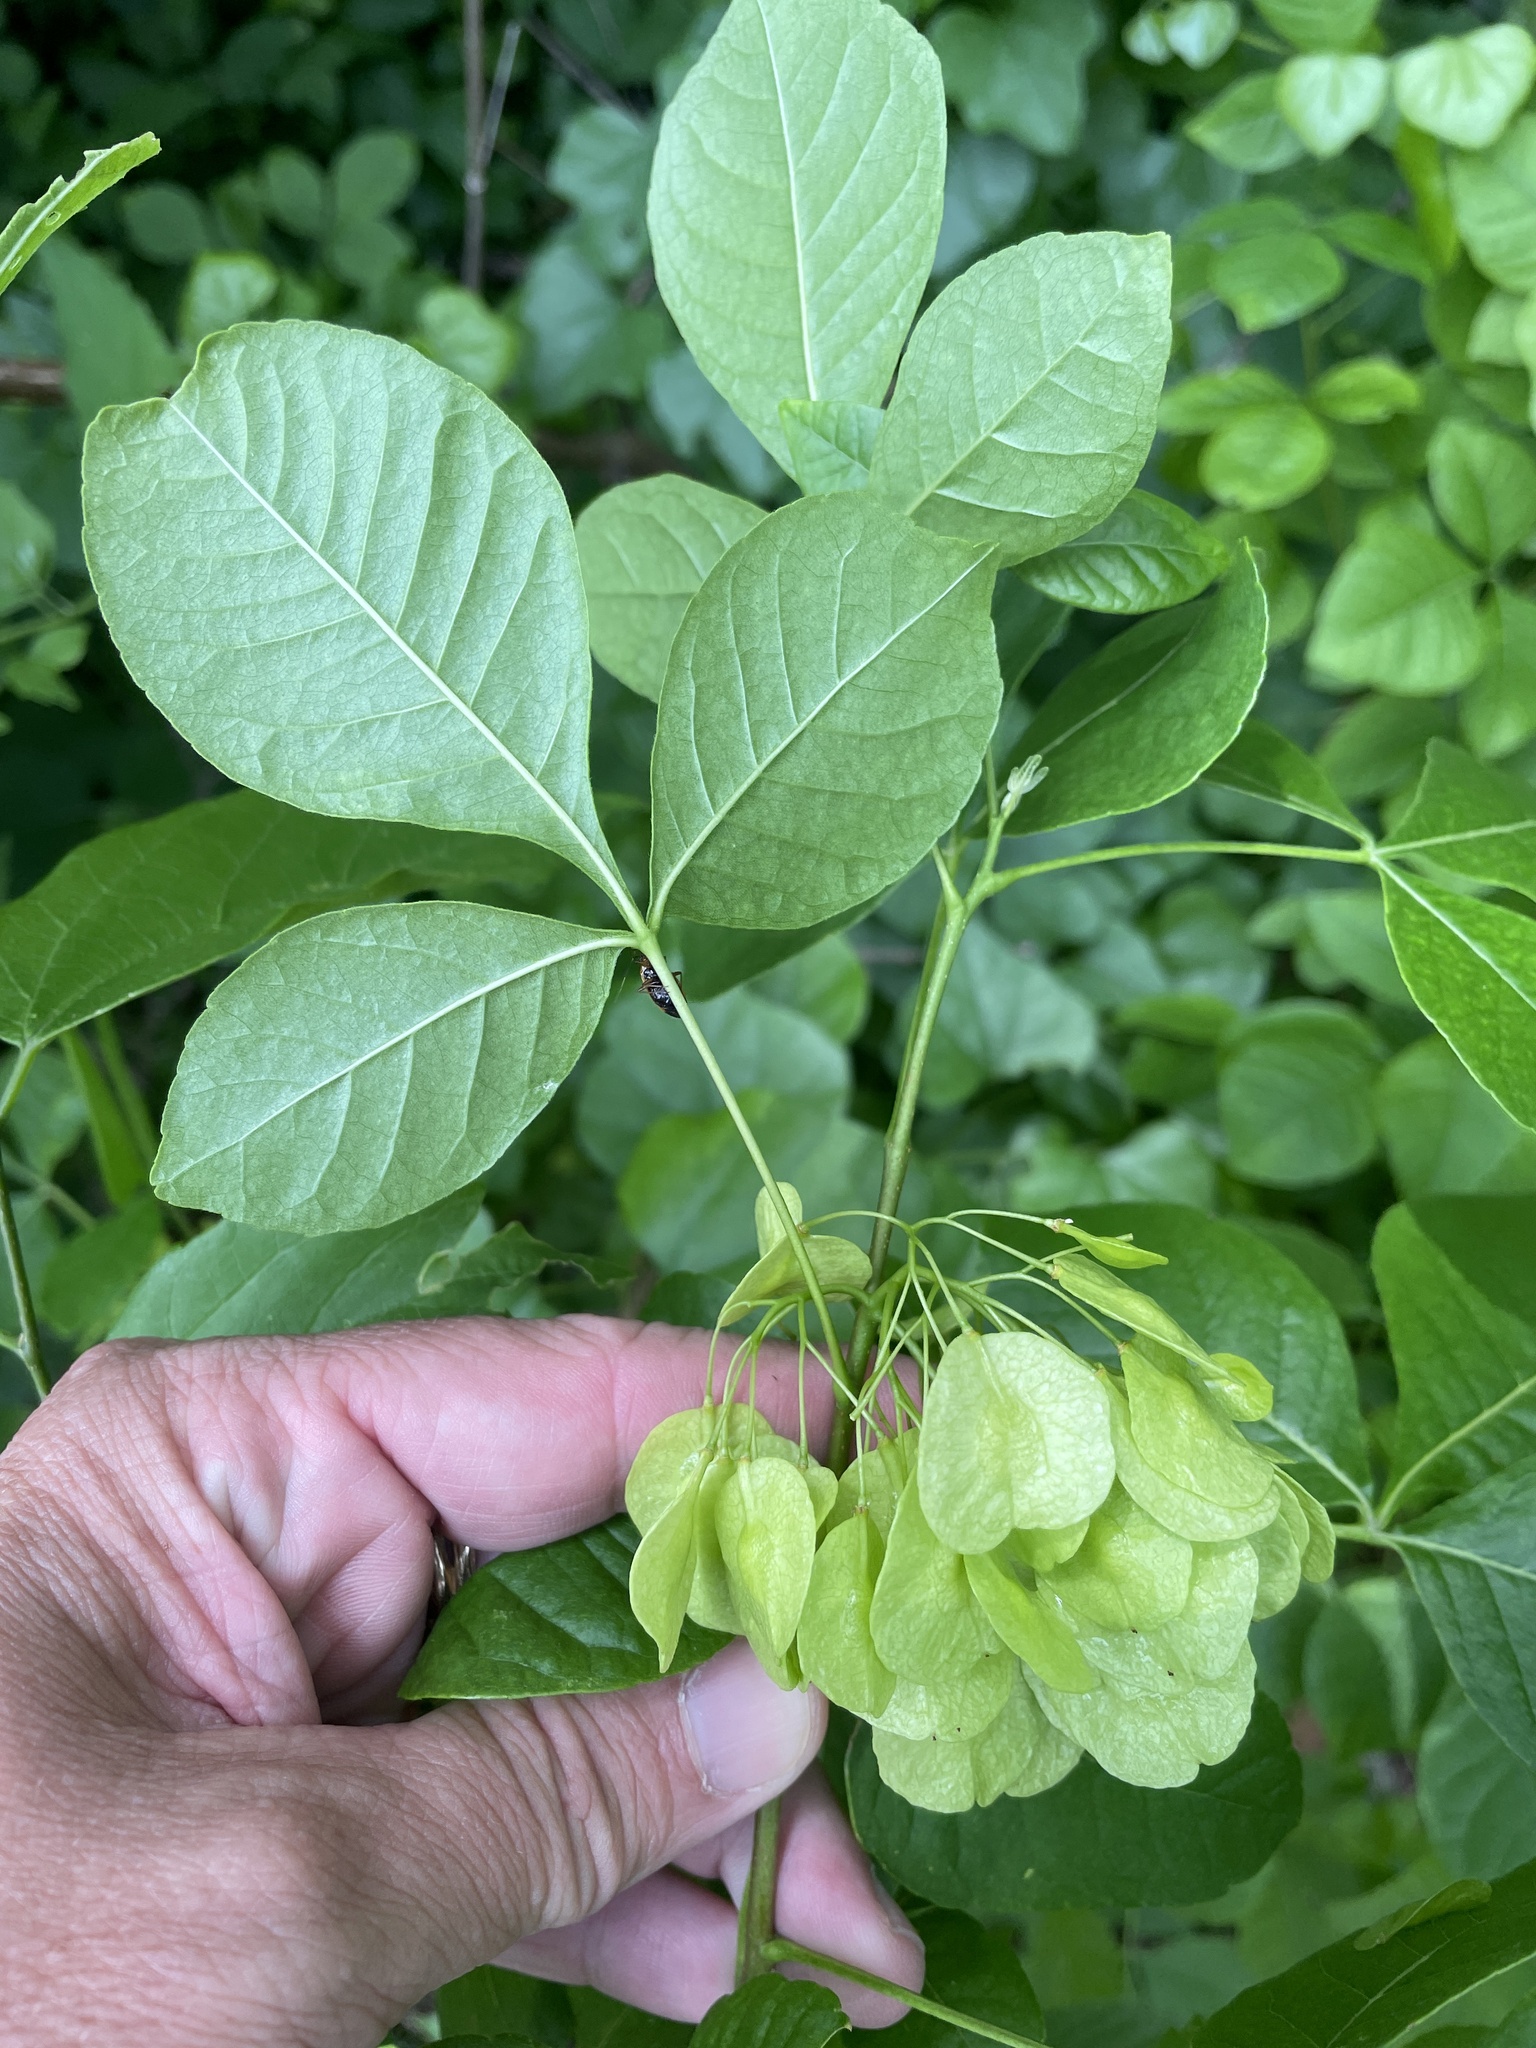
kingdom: Plantae
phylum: Tracheophyta
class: Magnoliopsida
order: Sapindales
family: Rutaceae
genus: Ptelea
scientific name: Ptelea trifoliata
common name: Common hop-tree
